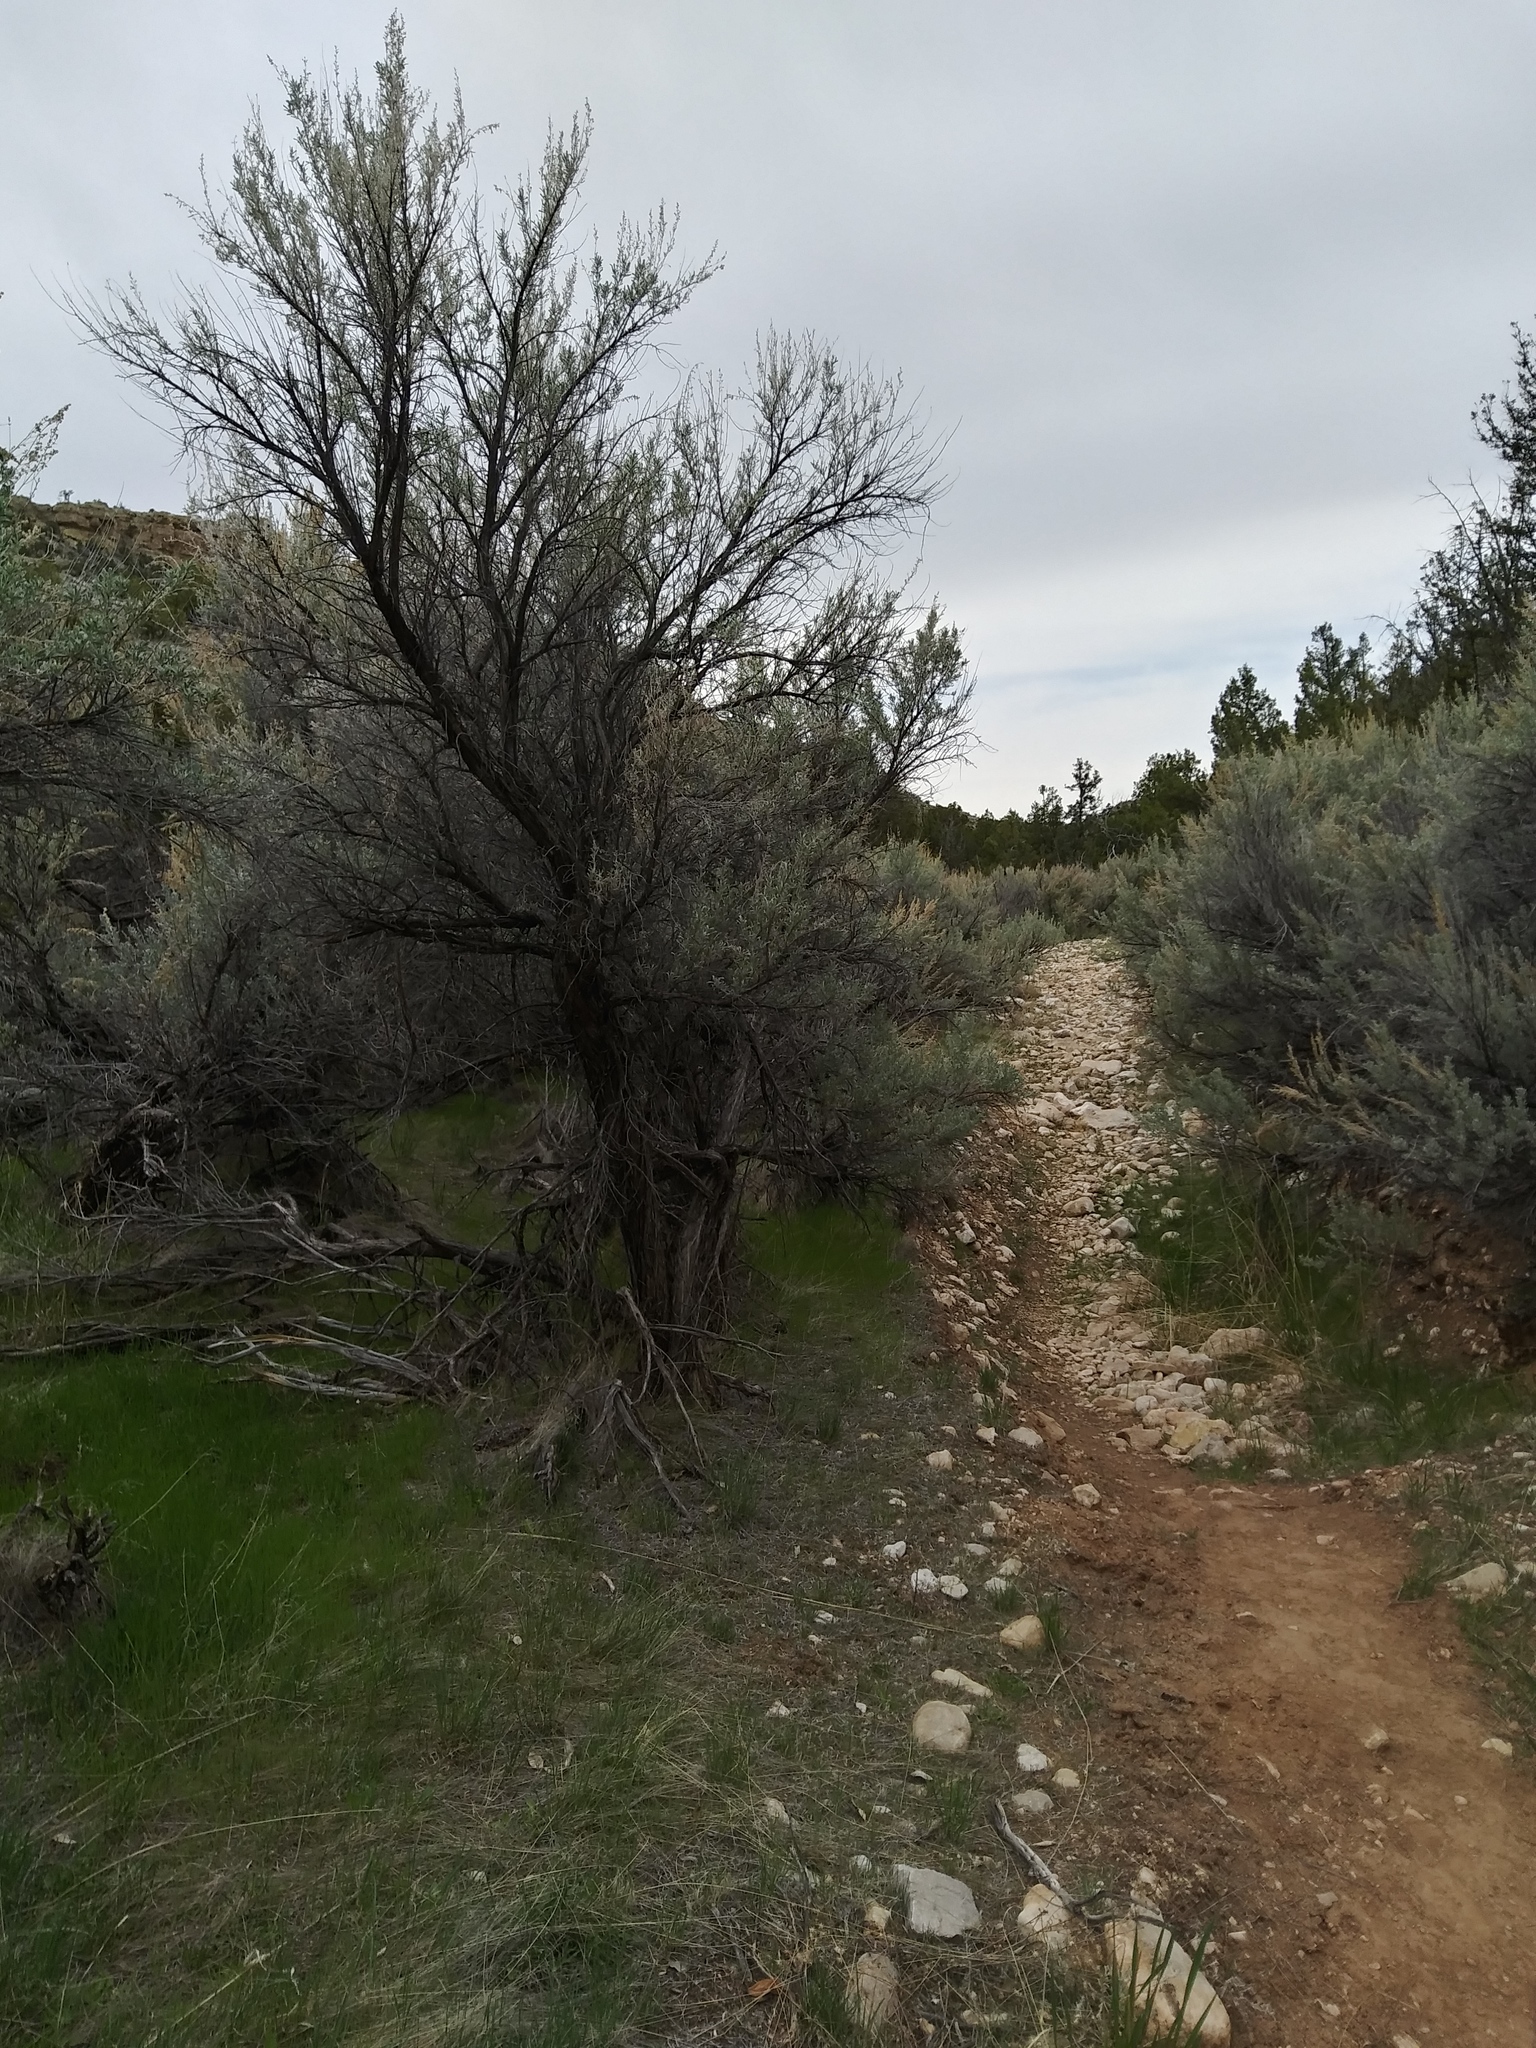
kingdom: Plantae
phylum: Tracheophyta
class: Magnoliopsida
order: Asterales
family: Asteraceae
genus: Artemisia
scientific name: Artemisia tridentata
